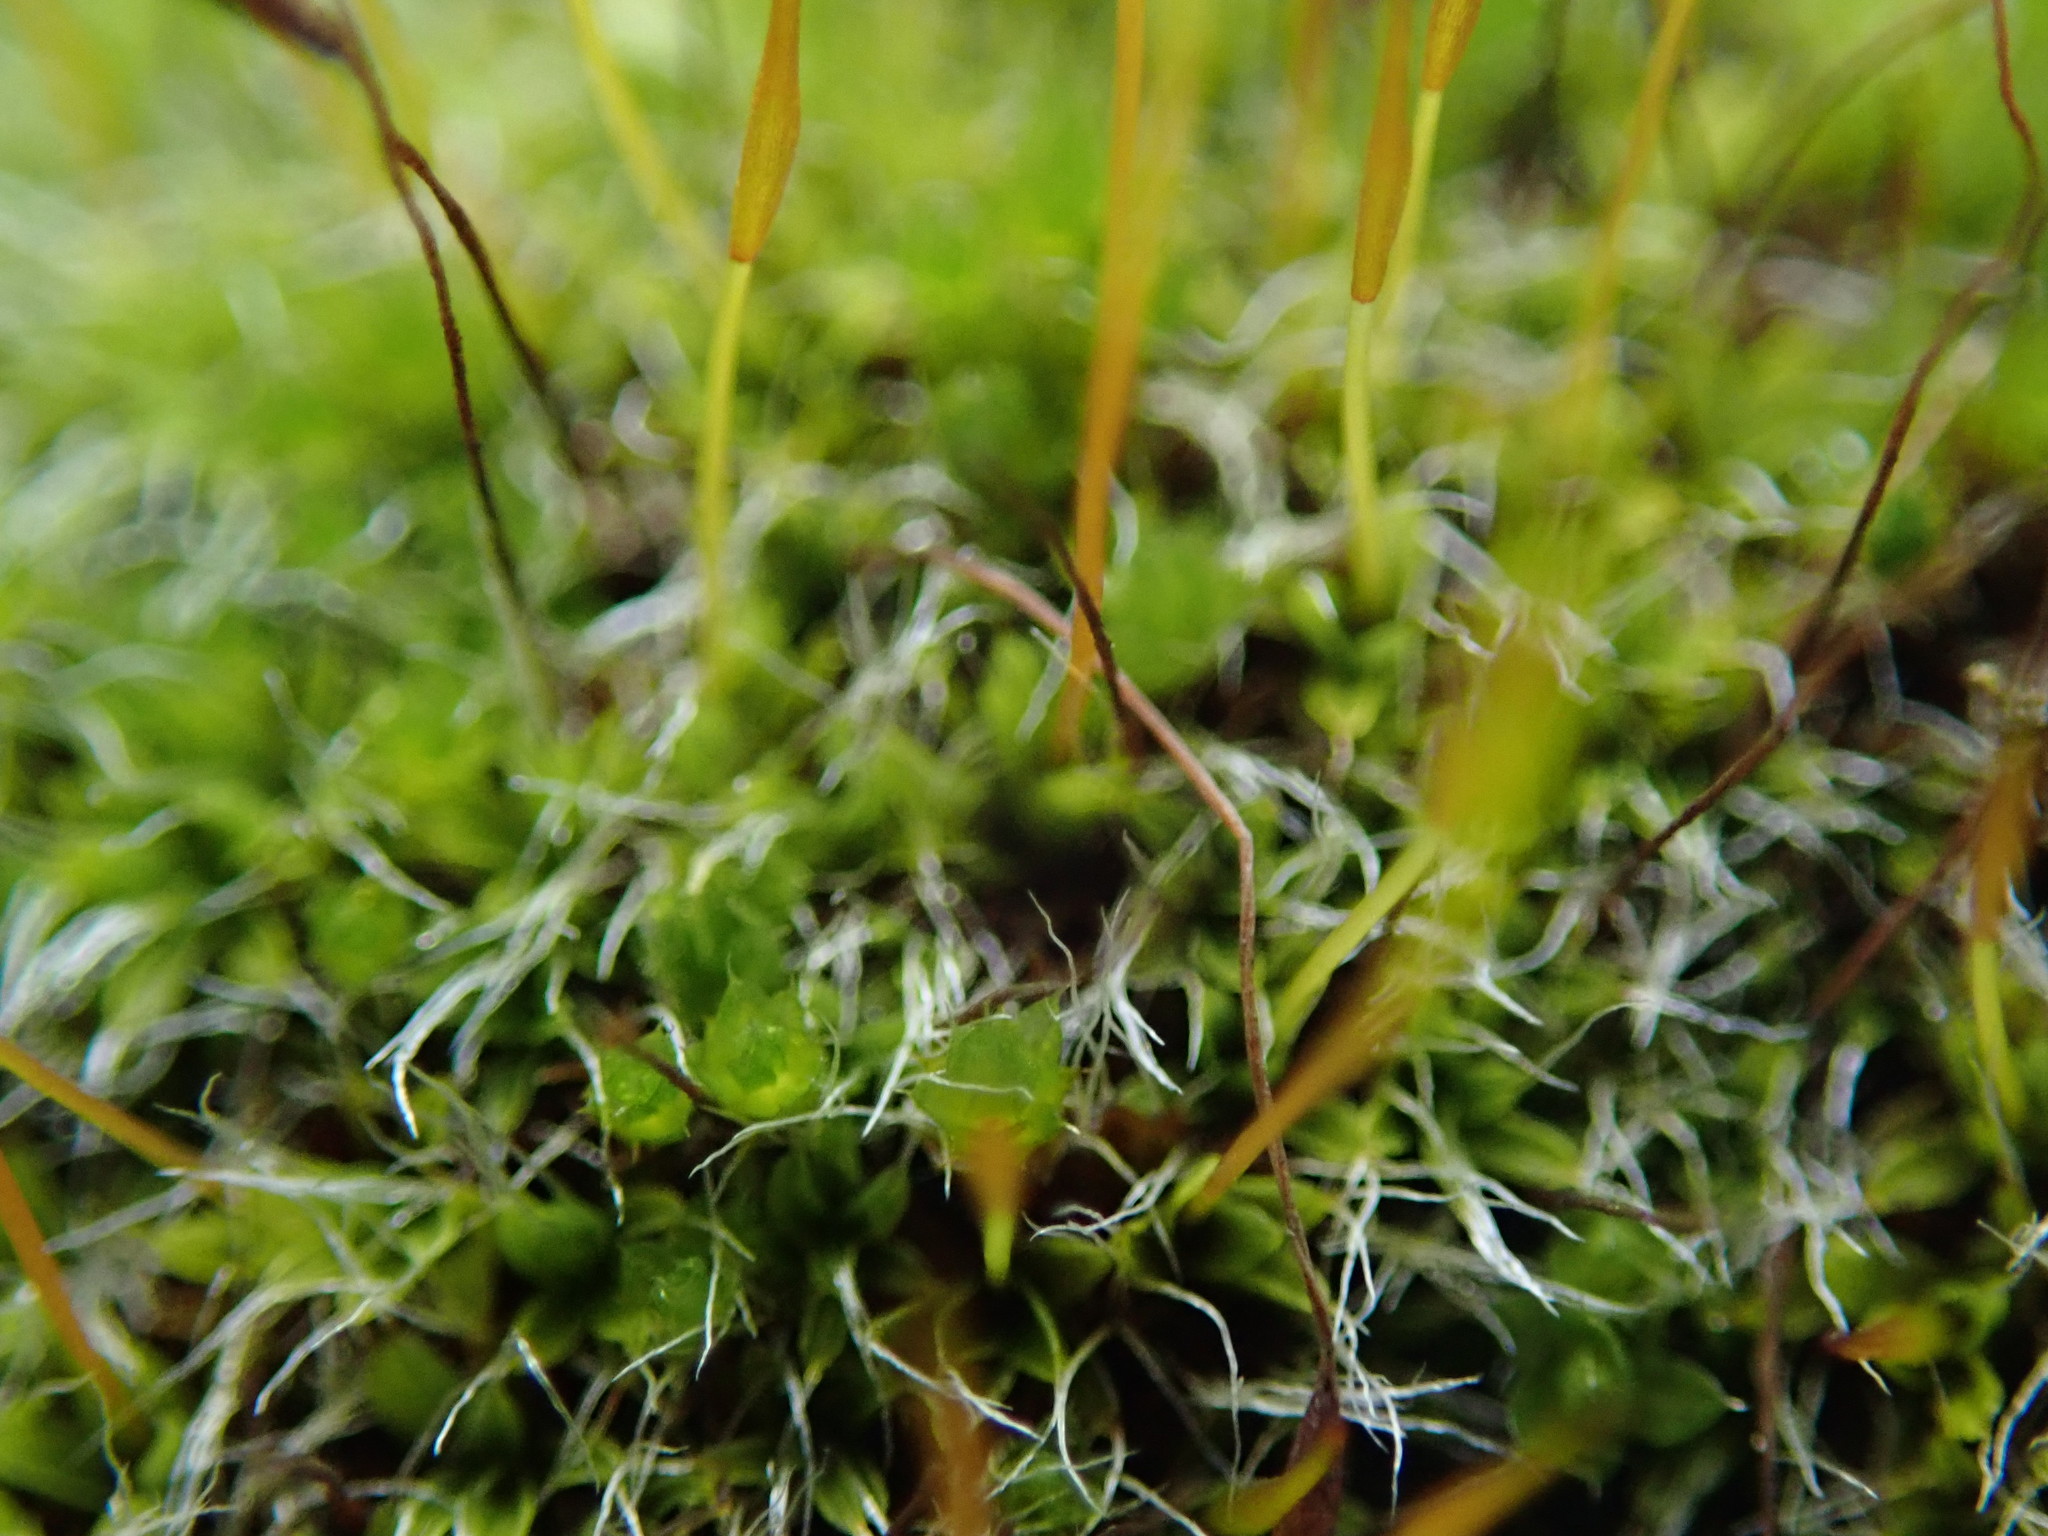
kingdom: Plantae
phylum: Bryophyta
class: Bryopsida
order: Pottiales
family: Pottiaceae
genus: Tortula
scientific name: Tortula muralis
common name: Wall screw-moss
